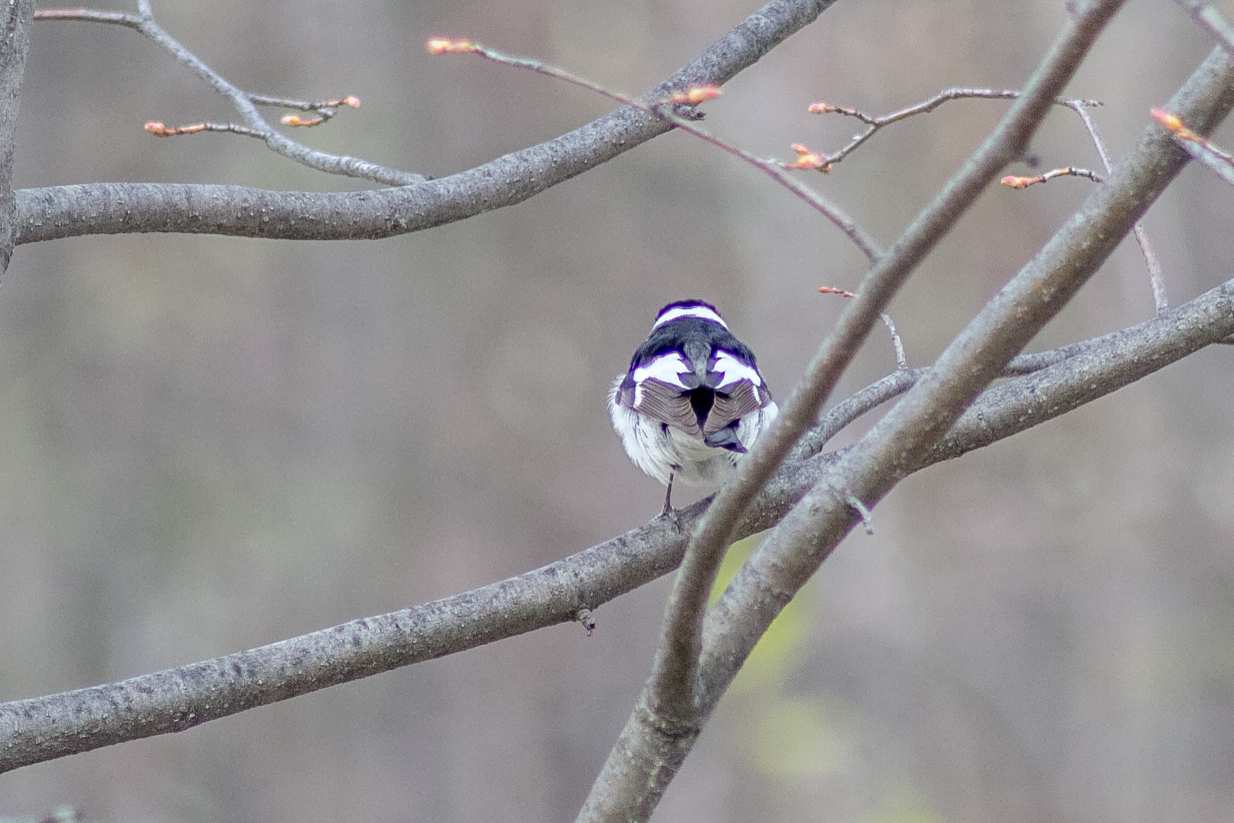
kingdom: Animalia
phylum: Chordata
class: Aves
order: Passeriformes
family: Muscicapidae
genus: Ficedula
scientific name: Ficedula albicollis
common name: Collared flycatcher
